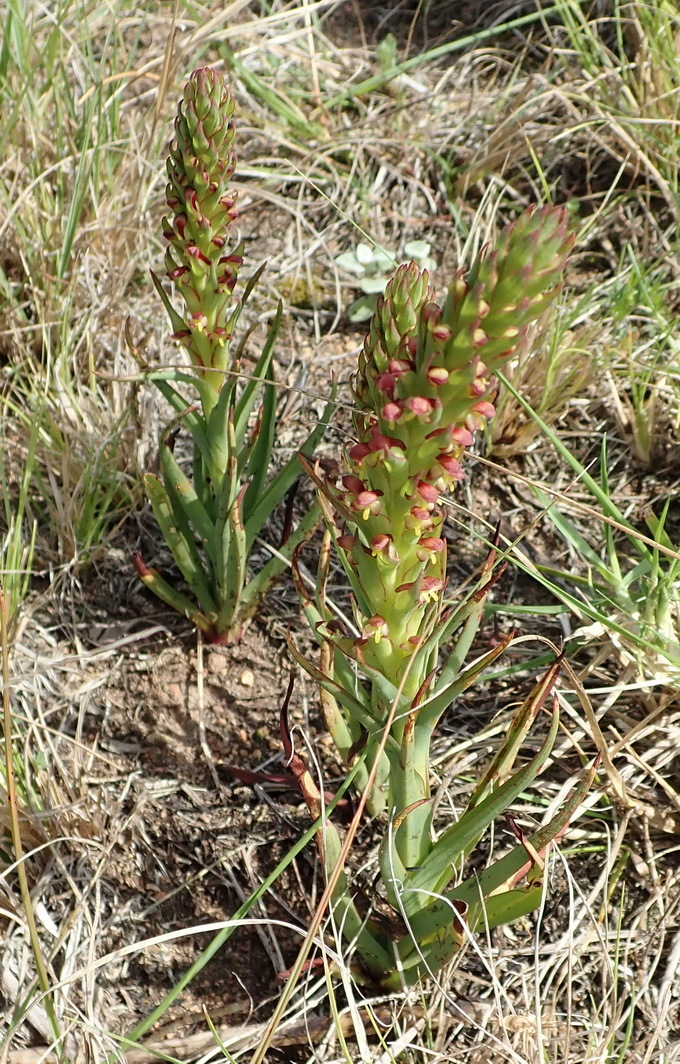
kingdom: Plantae
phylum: Tracheophyta
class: Liliopsida
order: Asparagales
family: Orchidaceae
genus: Disa
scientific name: Disa bracteata
